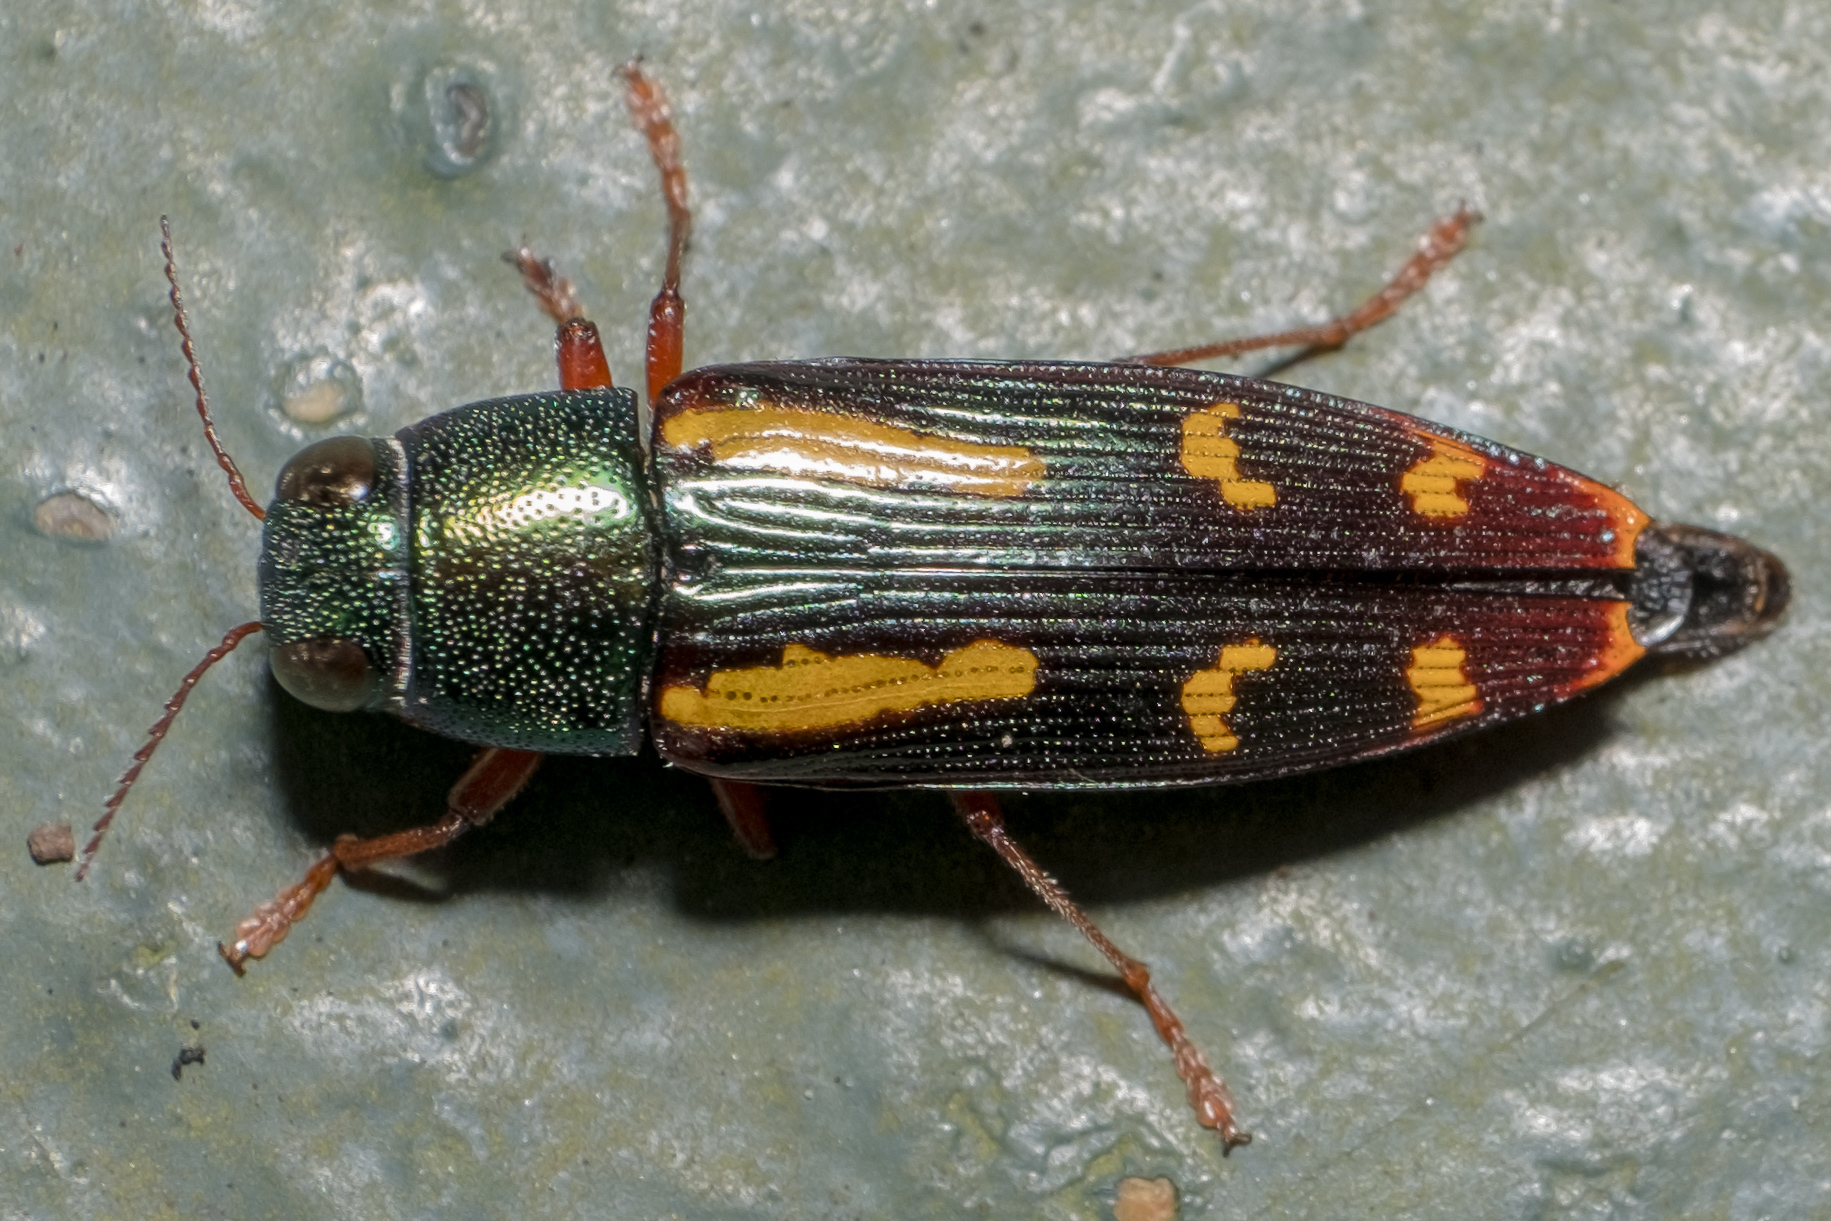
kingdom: Animalia
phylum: Arthropoda
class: Insecta
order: Coleoptera
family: Buprestidae
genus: Buprestis
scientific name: Buprestis rufipes
